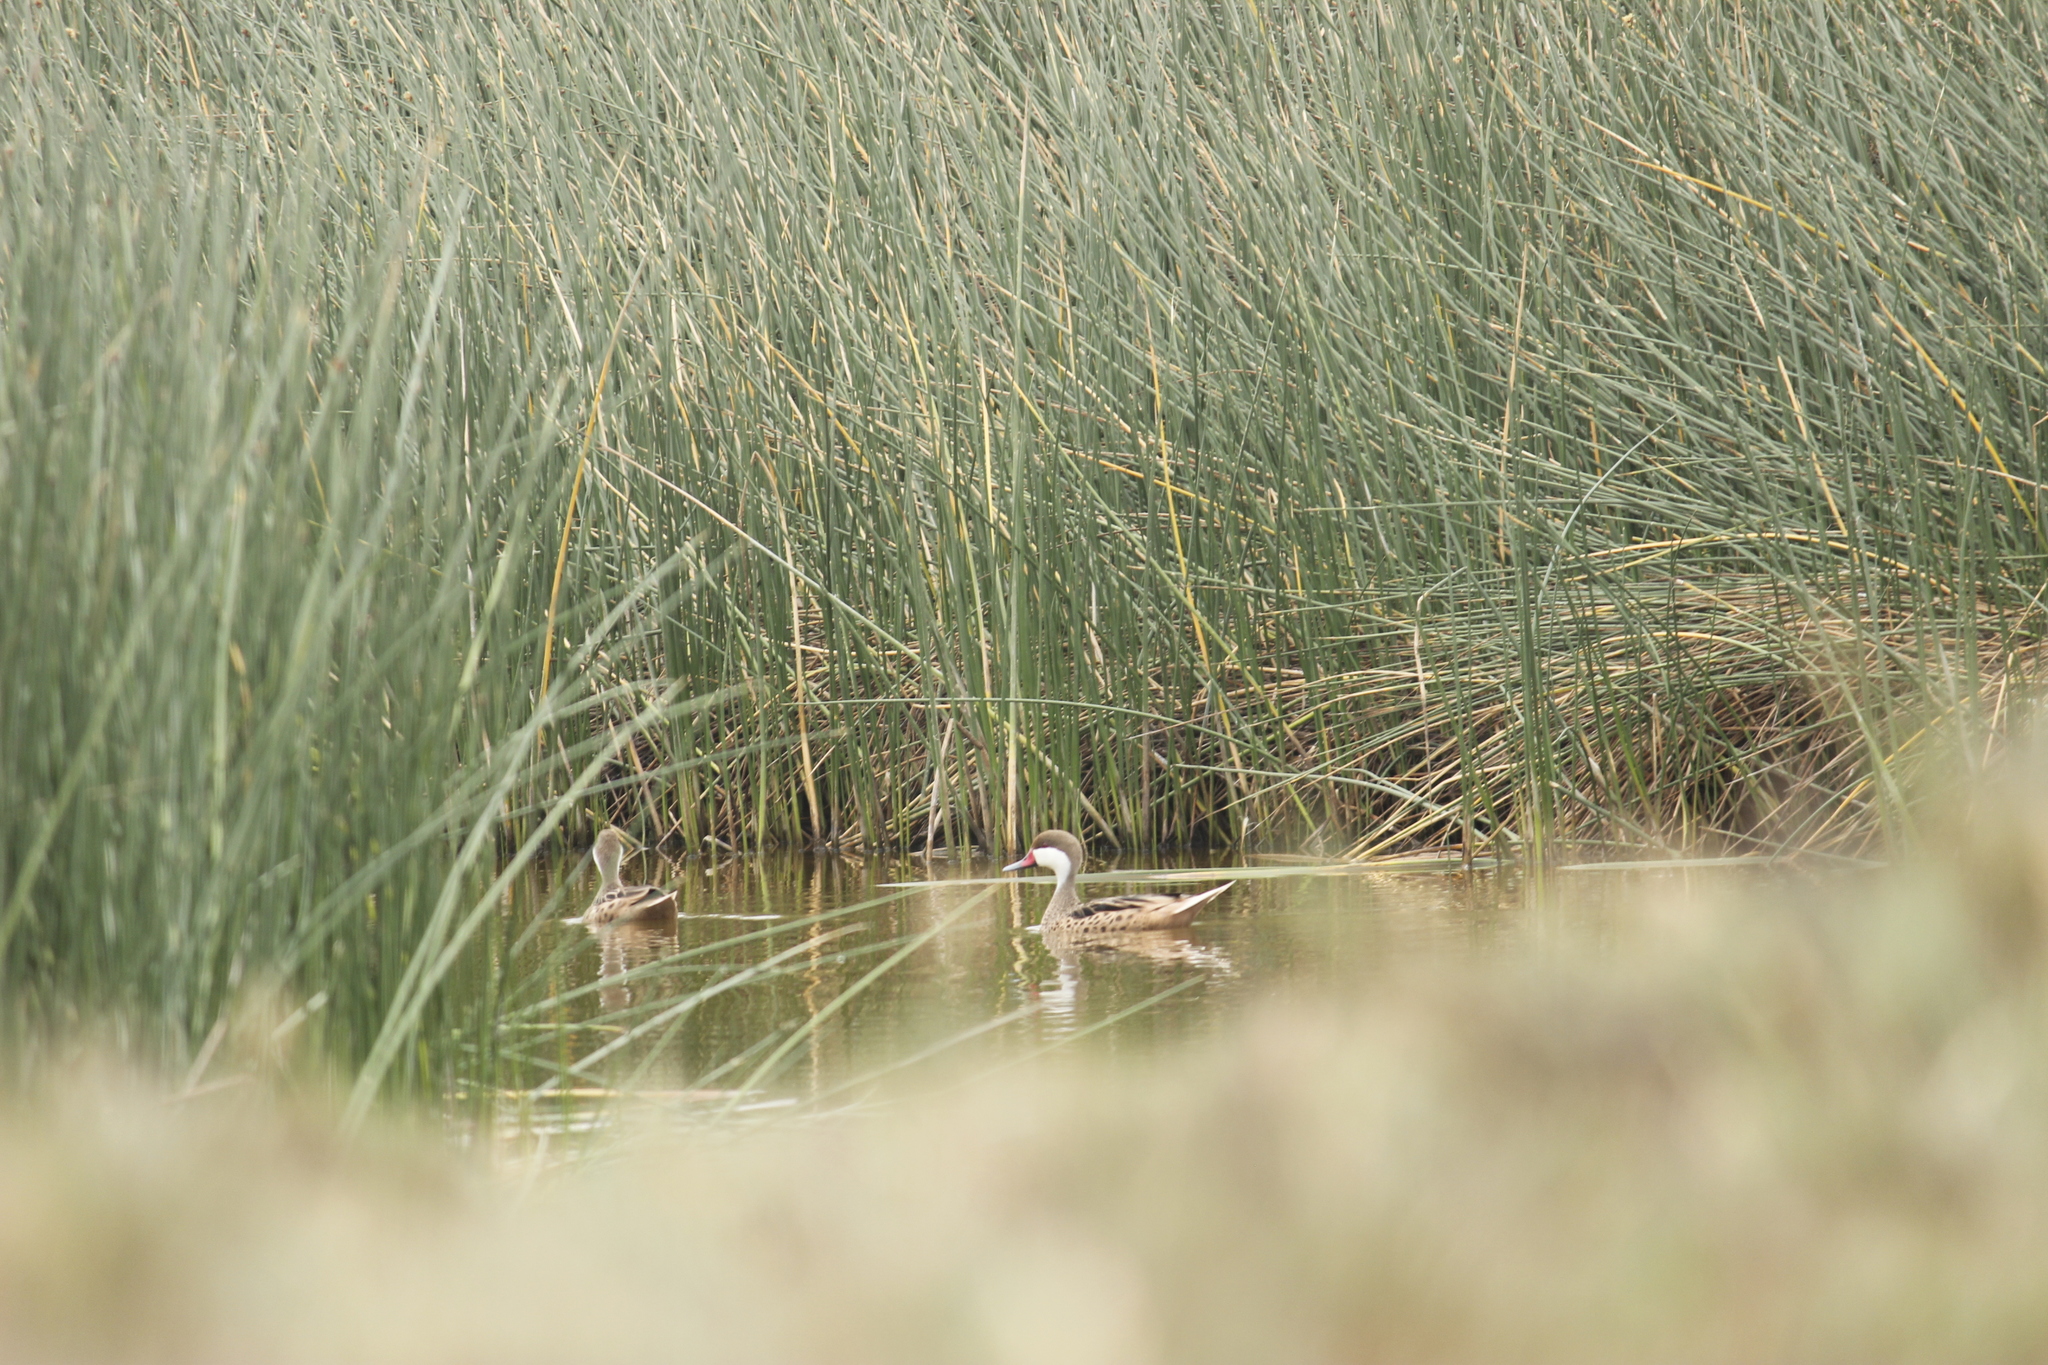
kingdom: Animalia
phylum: Chordata
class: Aves
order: Anseriformes
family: Anatidae
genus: Anas
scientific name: Anas bahamensis
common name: White-cheeked pintail
